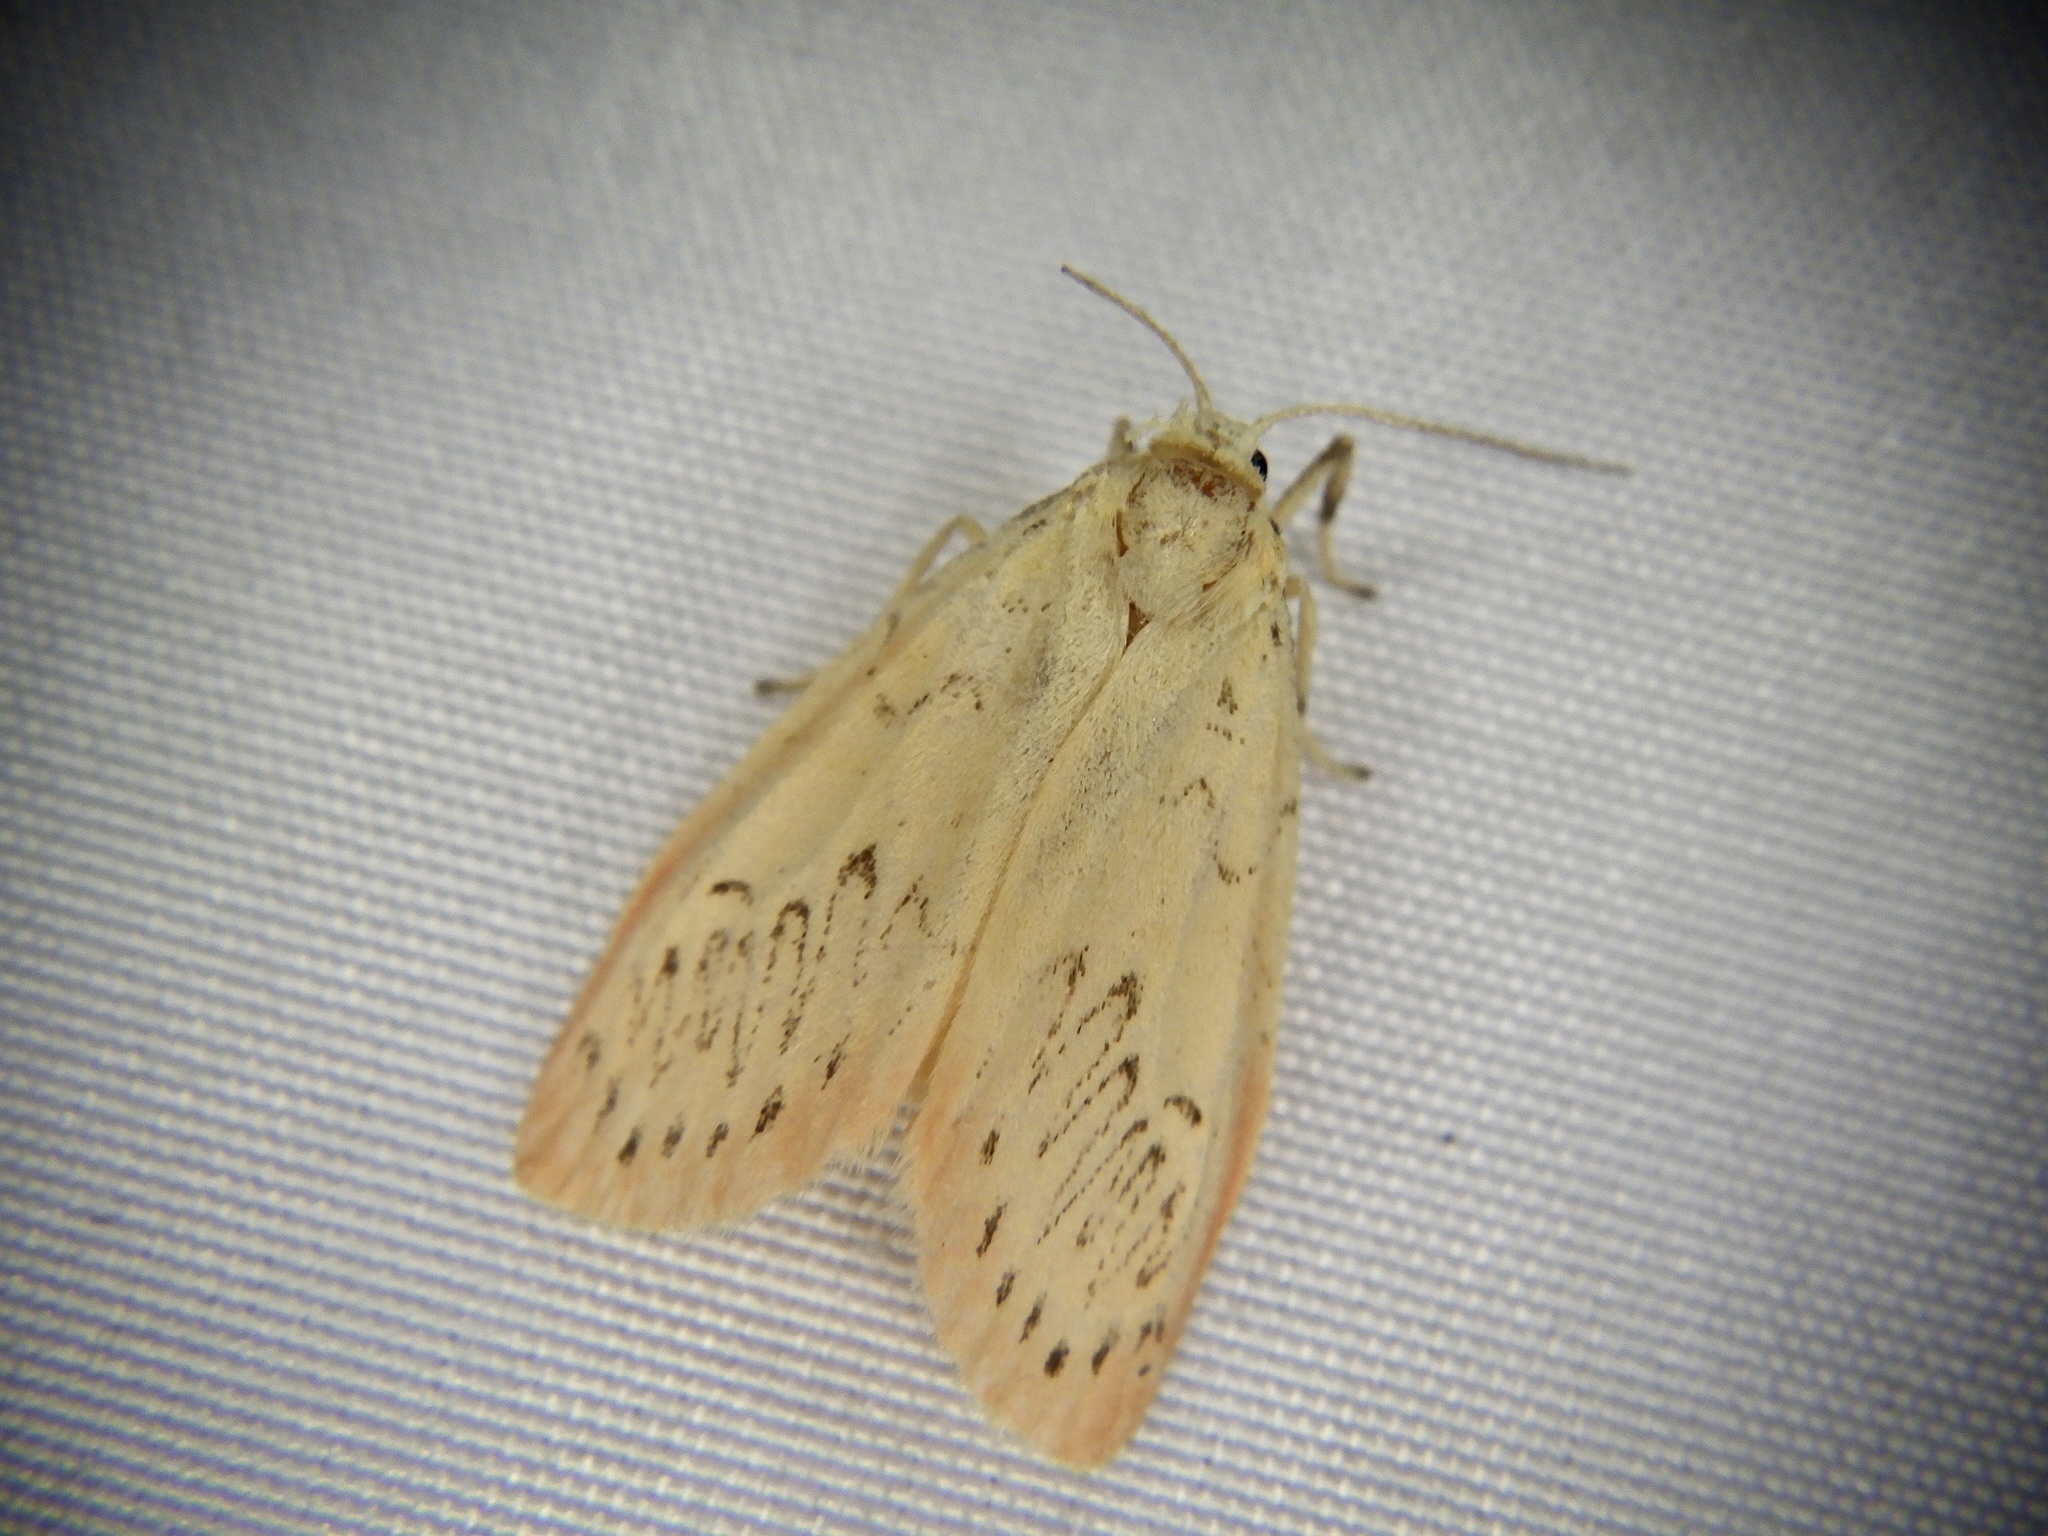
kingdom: Animalia
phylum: Arthropoda
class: Insecta
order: Lepidoptera
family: Erebidae
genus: Miltochrista
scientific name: Miltochrista miniata
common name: Rosy footman
